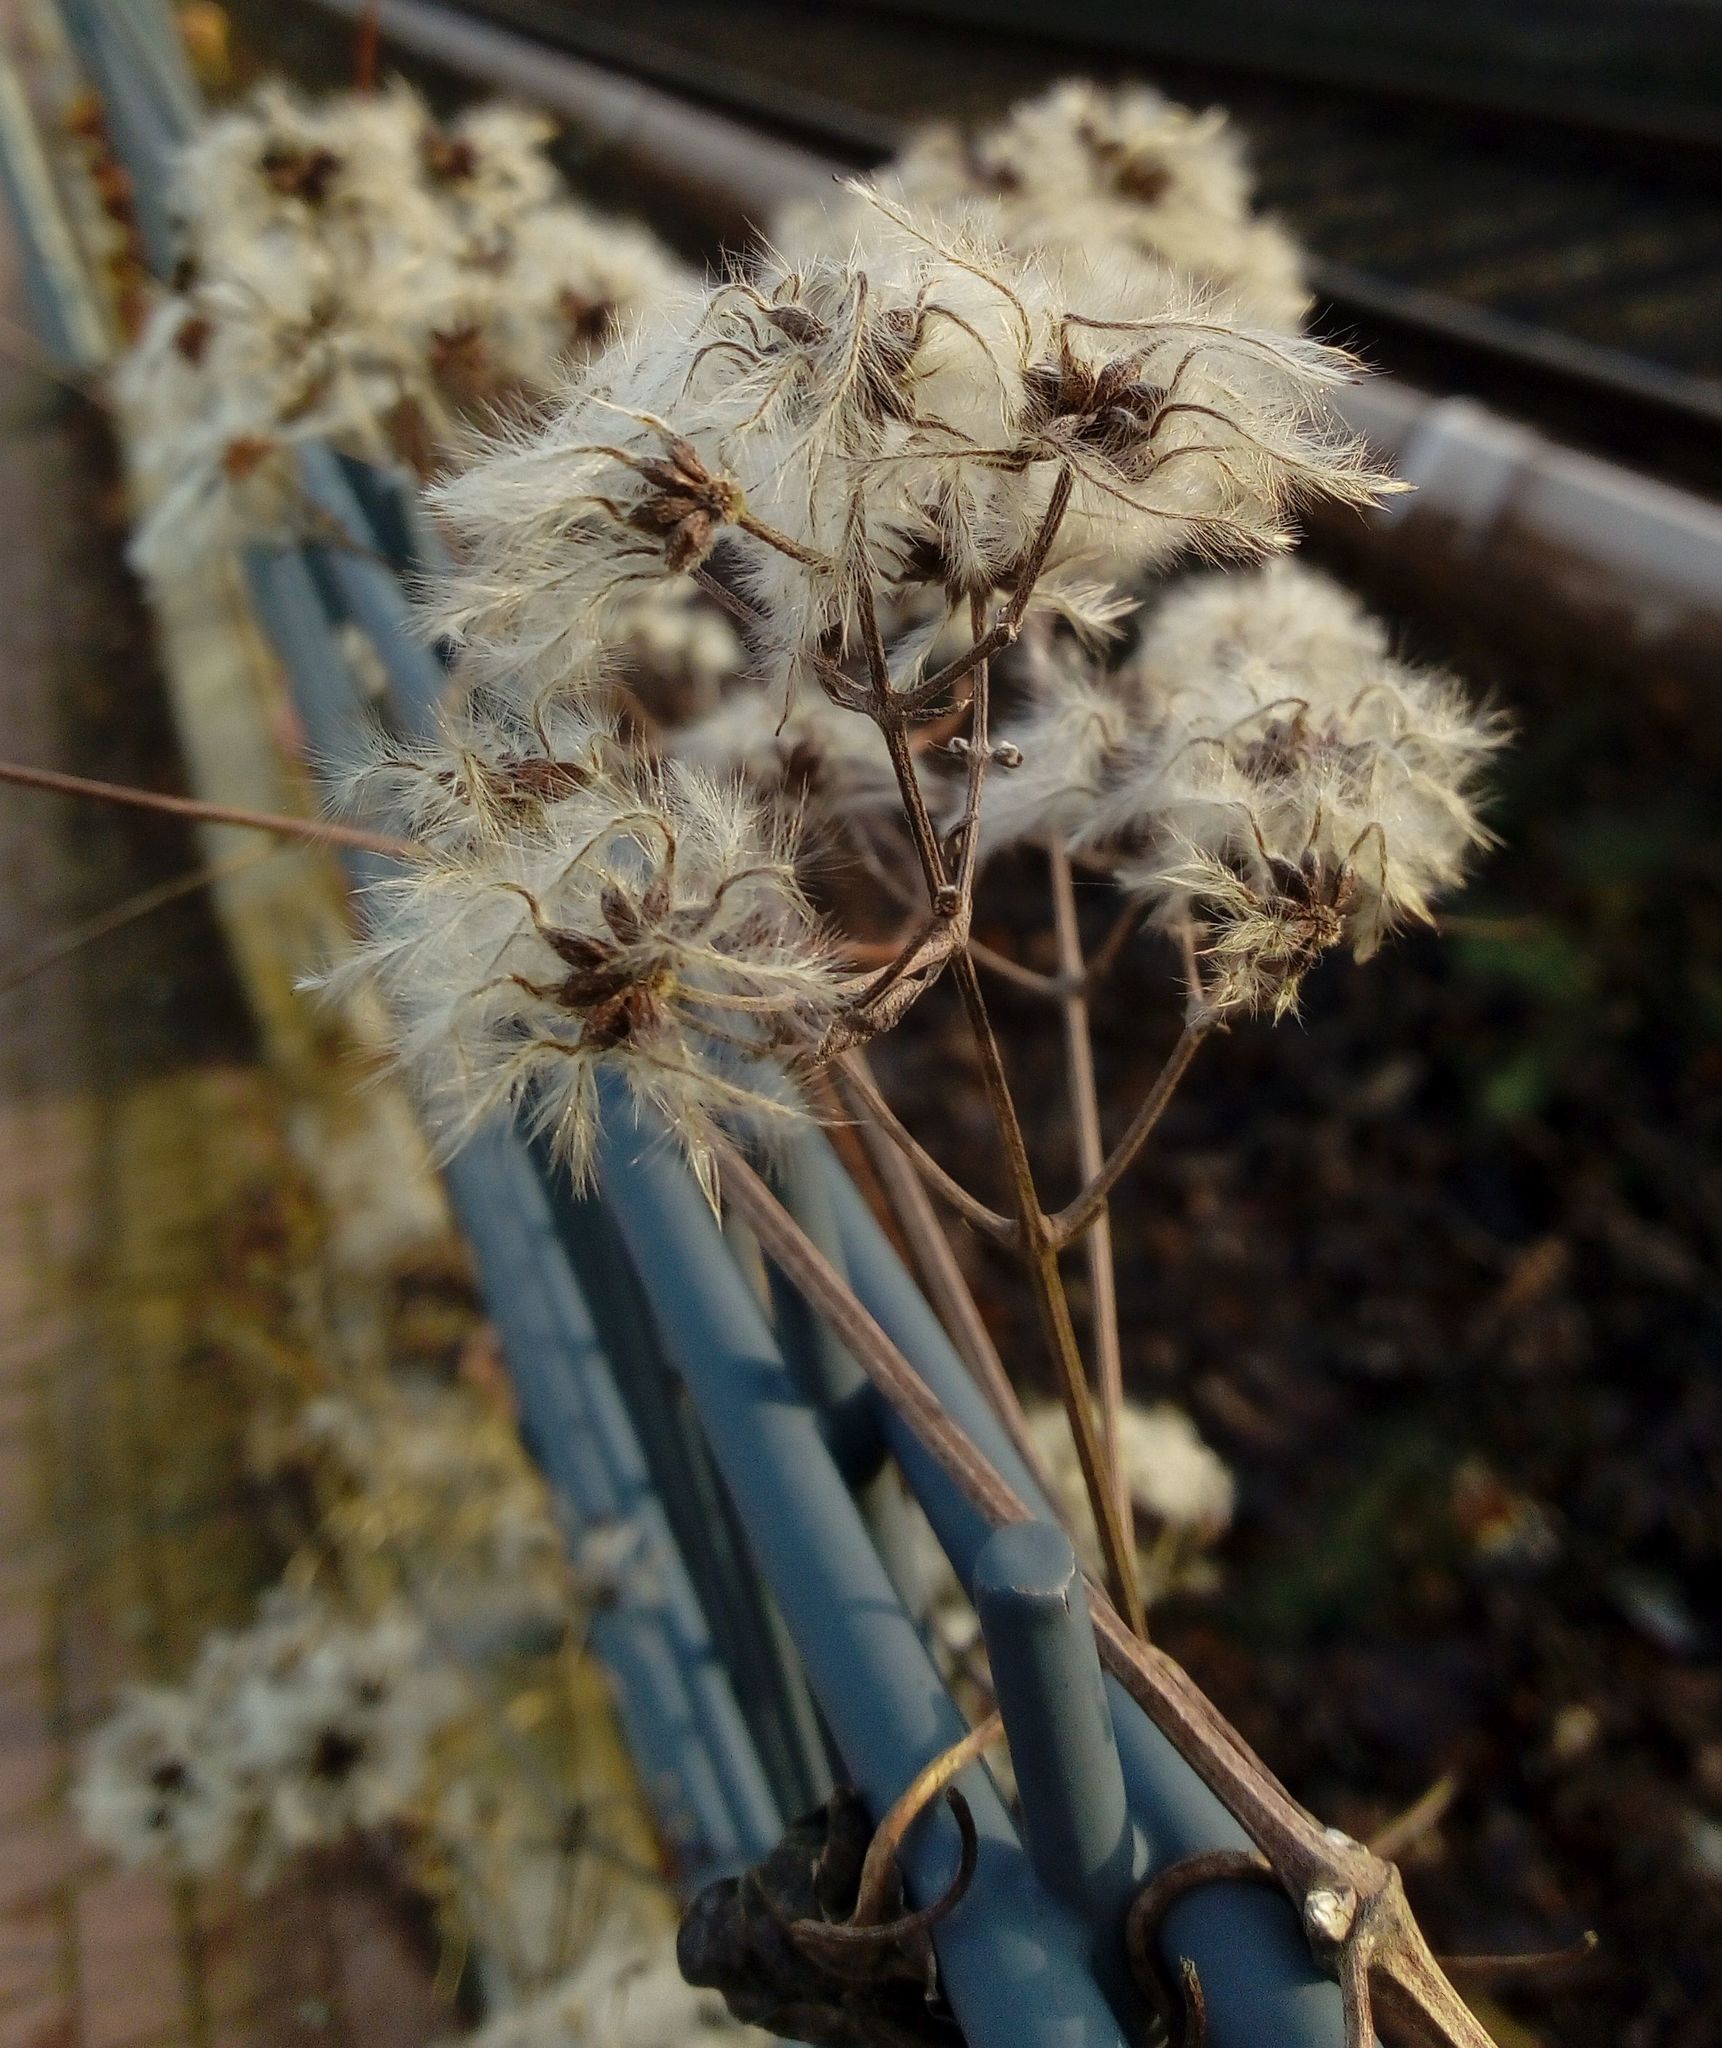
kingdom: Plantae
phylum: Tracheophyta
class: Magnoliopsida
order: Ranunculales
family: Ranunculaceae
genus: Clematis
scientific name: Clematis vitalba
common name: Evergreen clematis
